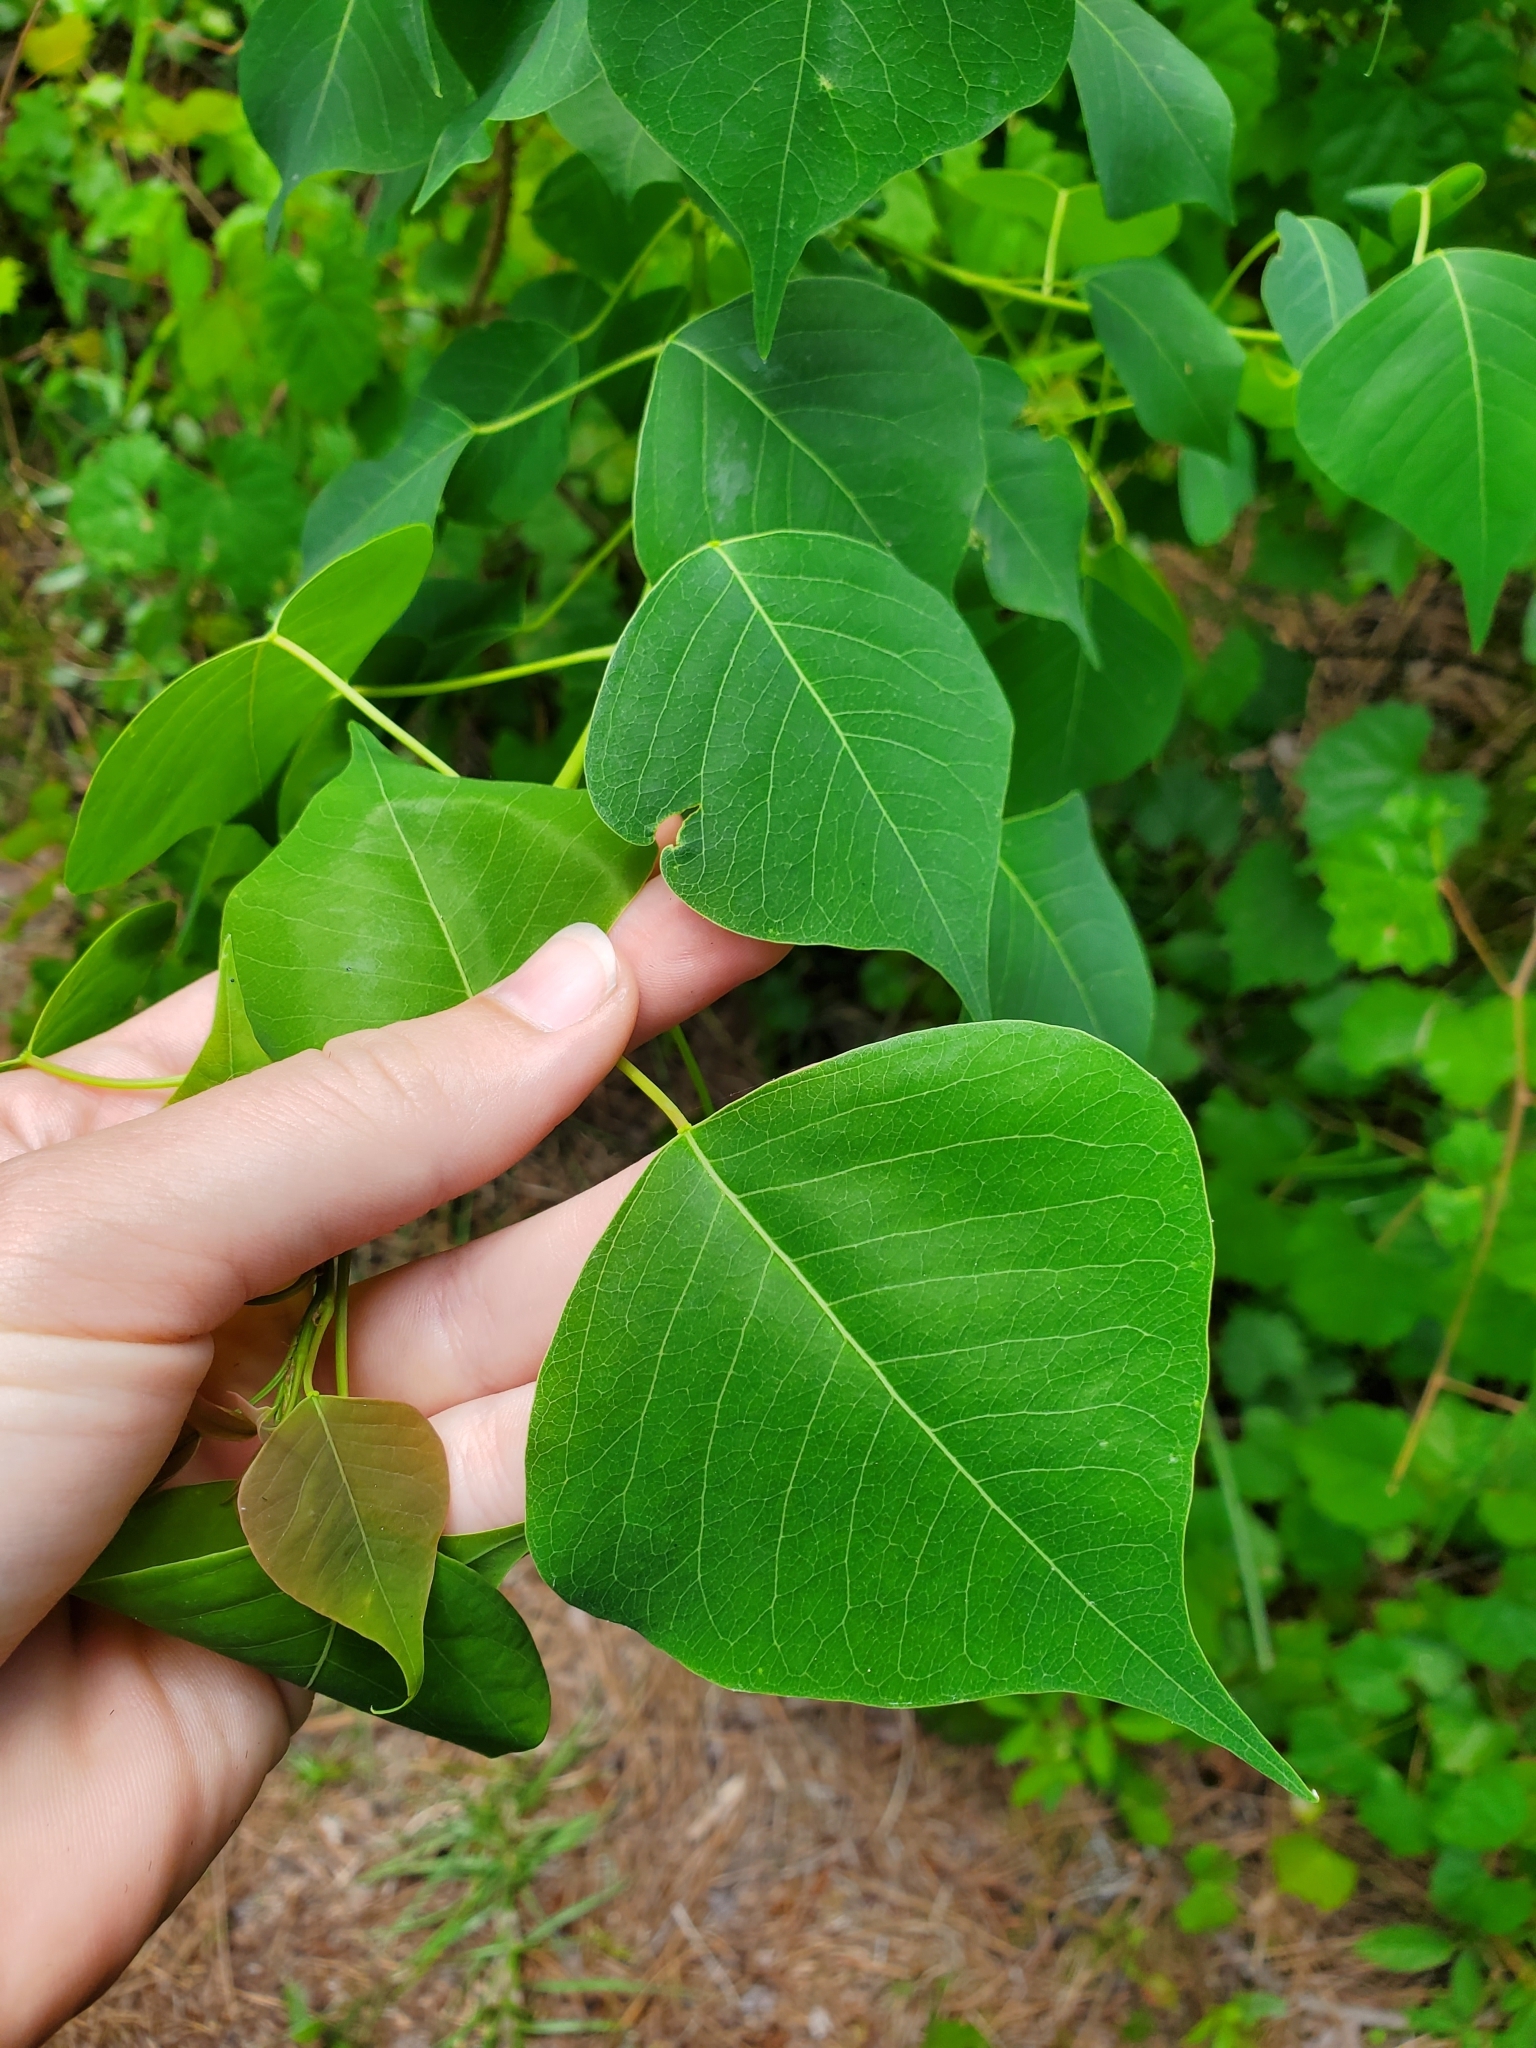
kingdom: Plantae
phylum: Tracheophyta
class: Magnoliopsida
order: Malpighiales
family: Euphorbiaceae
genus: Triadica
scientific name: Triadica sebifera
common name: Chinese tallow
